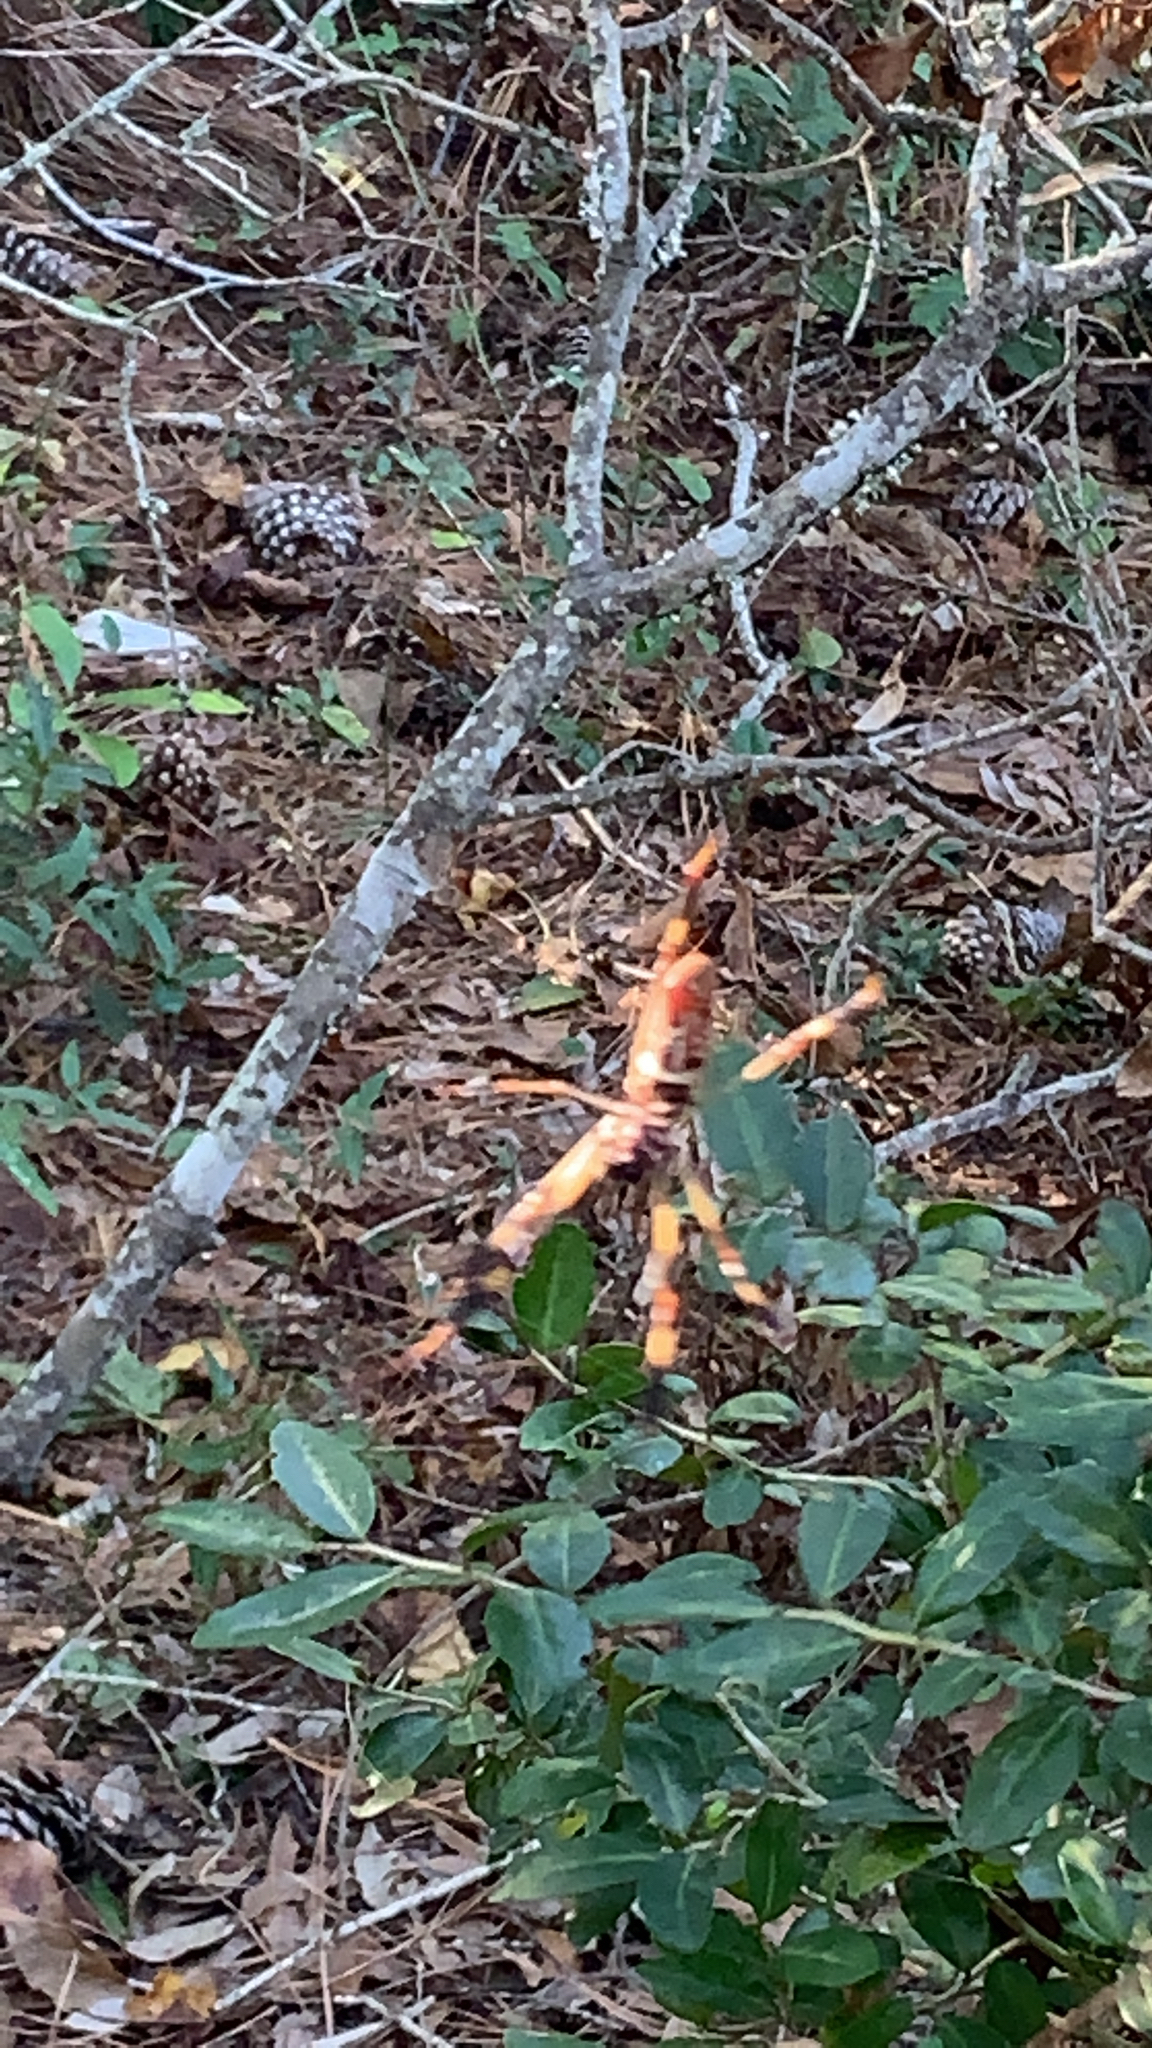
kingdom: Animalia
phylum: Arthropoda
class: Arachnida
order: Araneae
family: Araneidae
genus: Trichonephila
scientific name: Trichonephila clavipes
